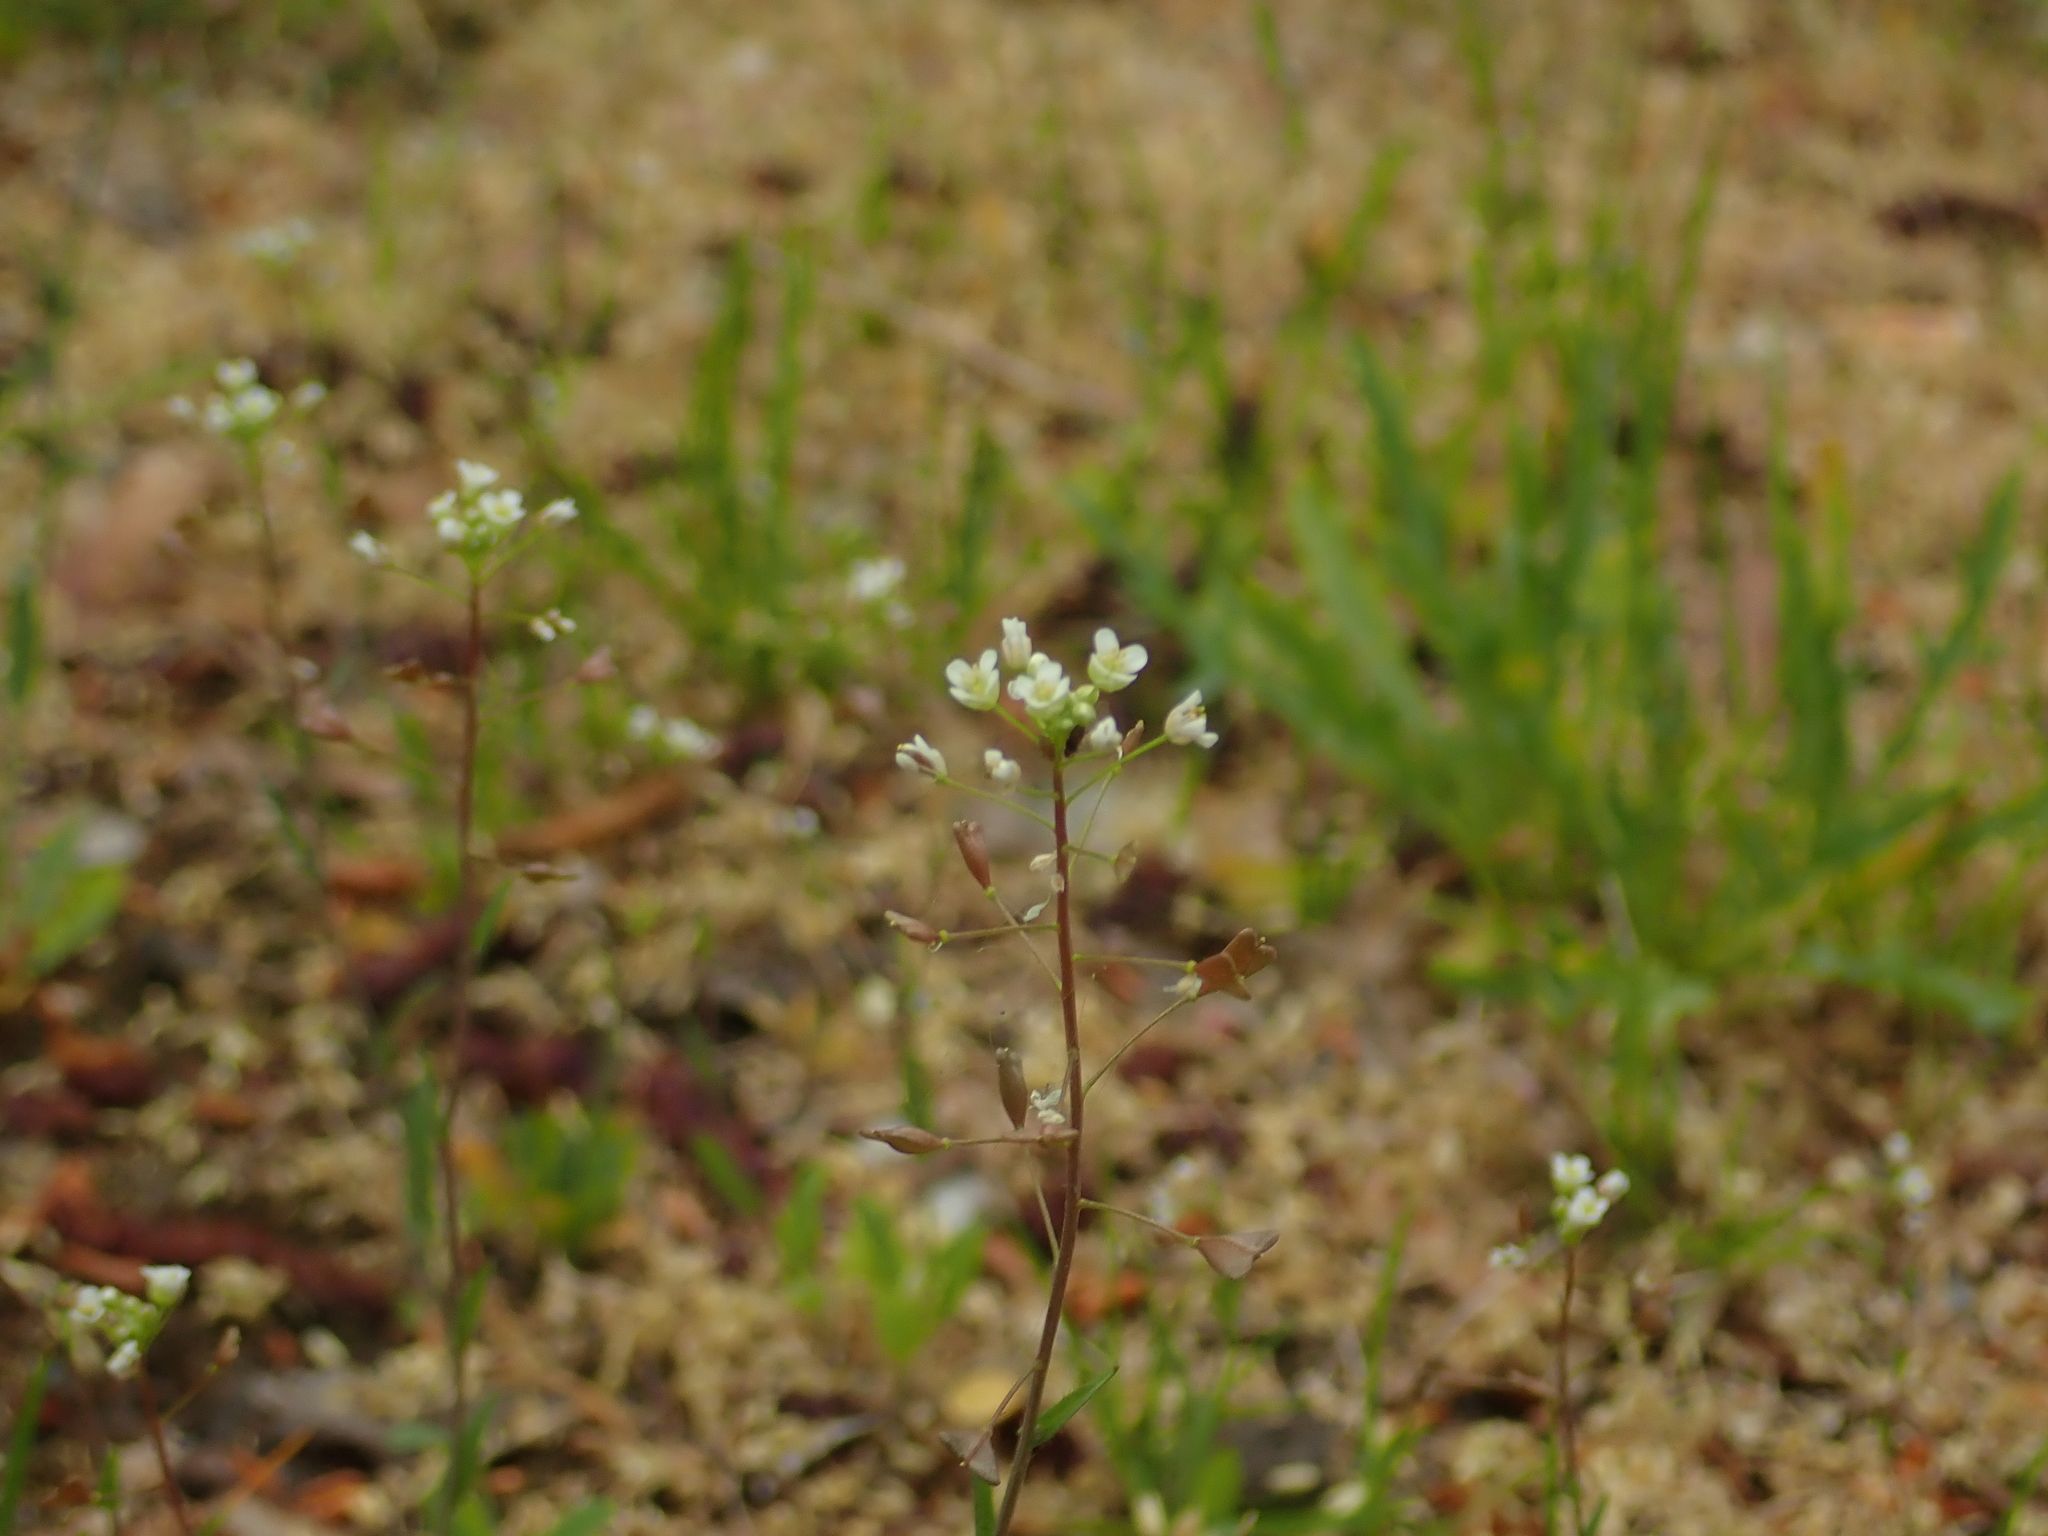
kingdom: Plantae
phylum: Tracheophyta
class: Magnoliopsida
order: Brassicales
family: Brassicaceae
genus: Capsella
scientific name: Capsella bursa-pastoris
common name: Shepherd's purse
